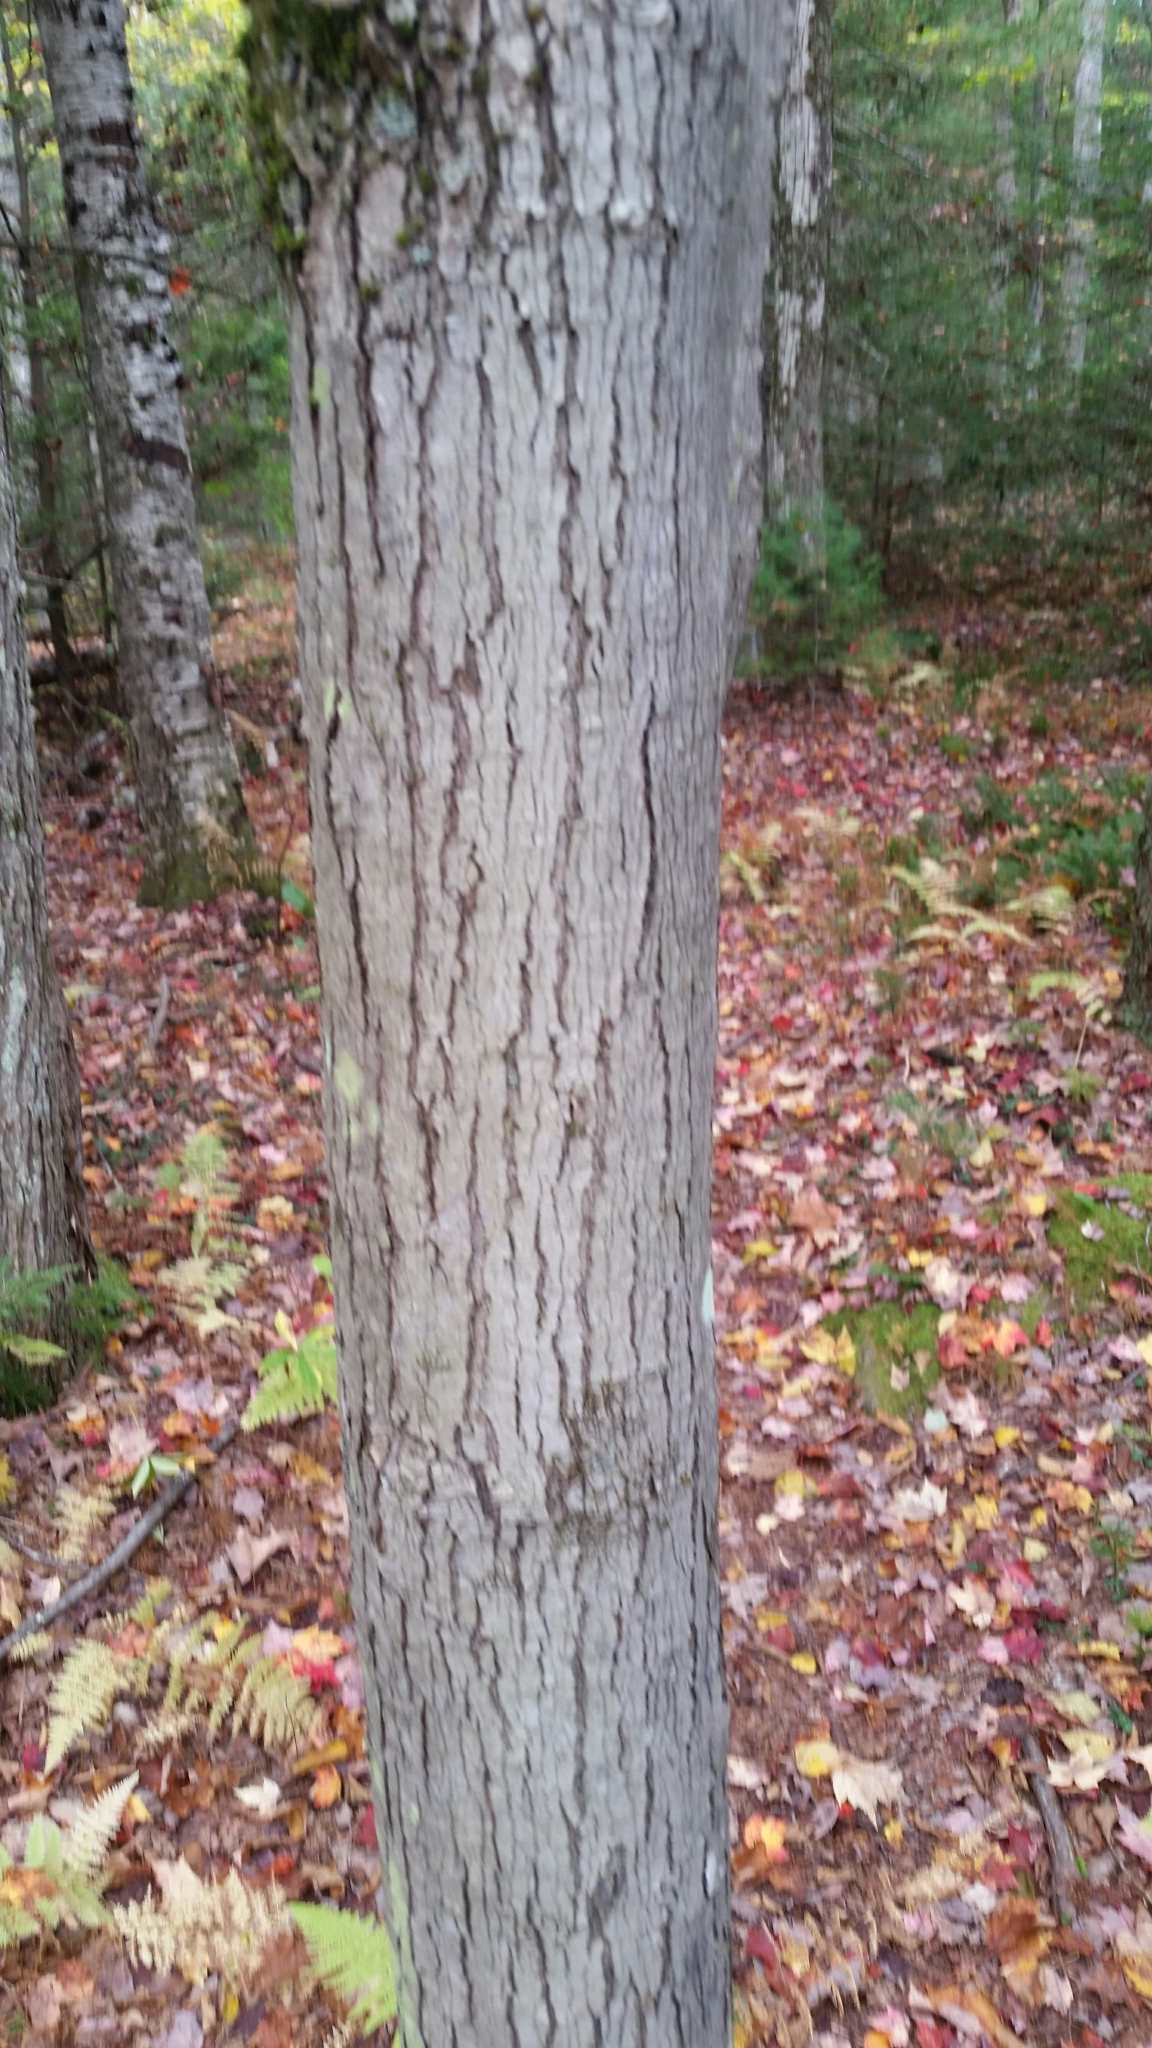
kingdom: Plantae
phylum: Tracheophyta
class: Magnoliopsida
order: Sapindales
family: Sapindaceae
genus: Acer
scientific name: Acer rubrum
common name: Red maple
